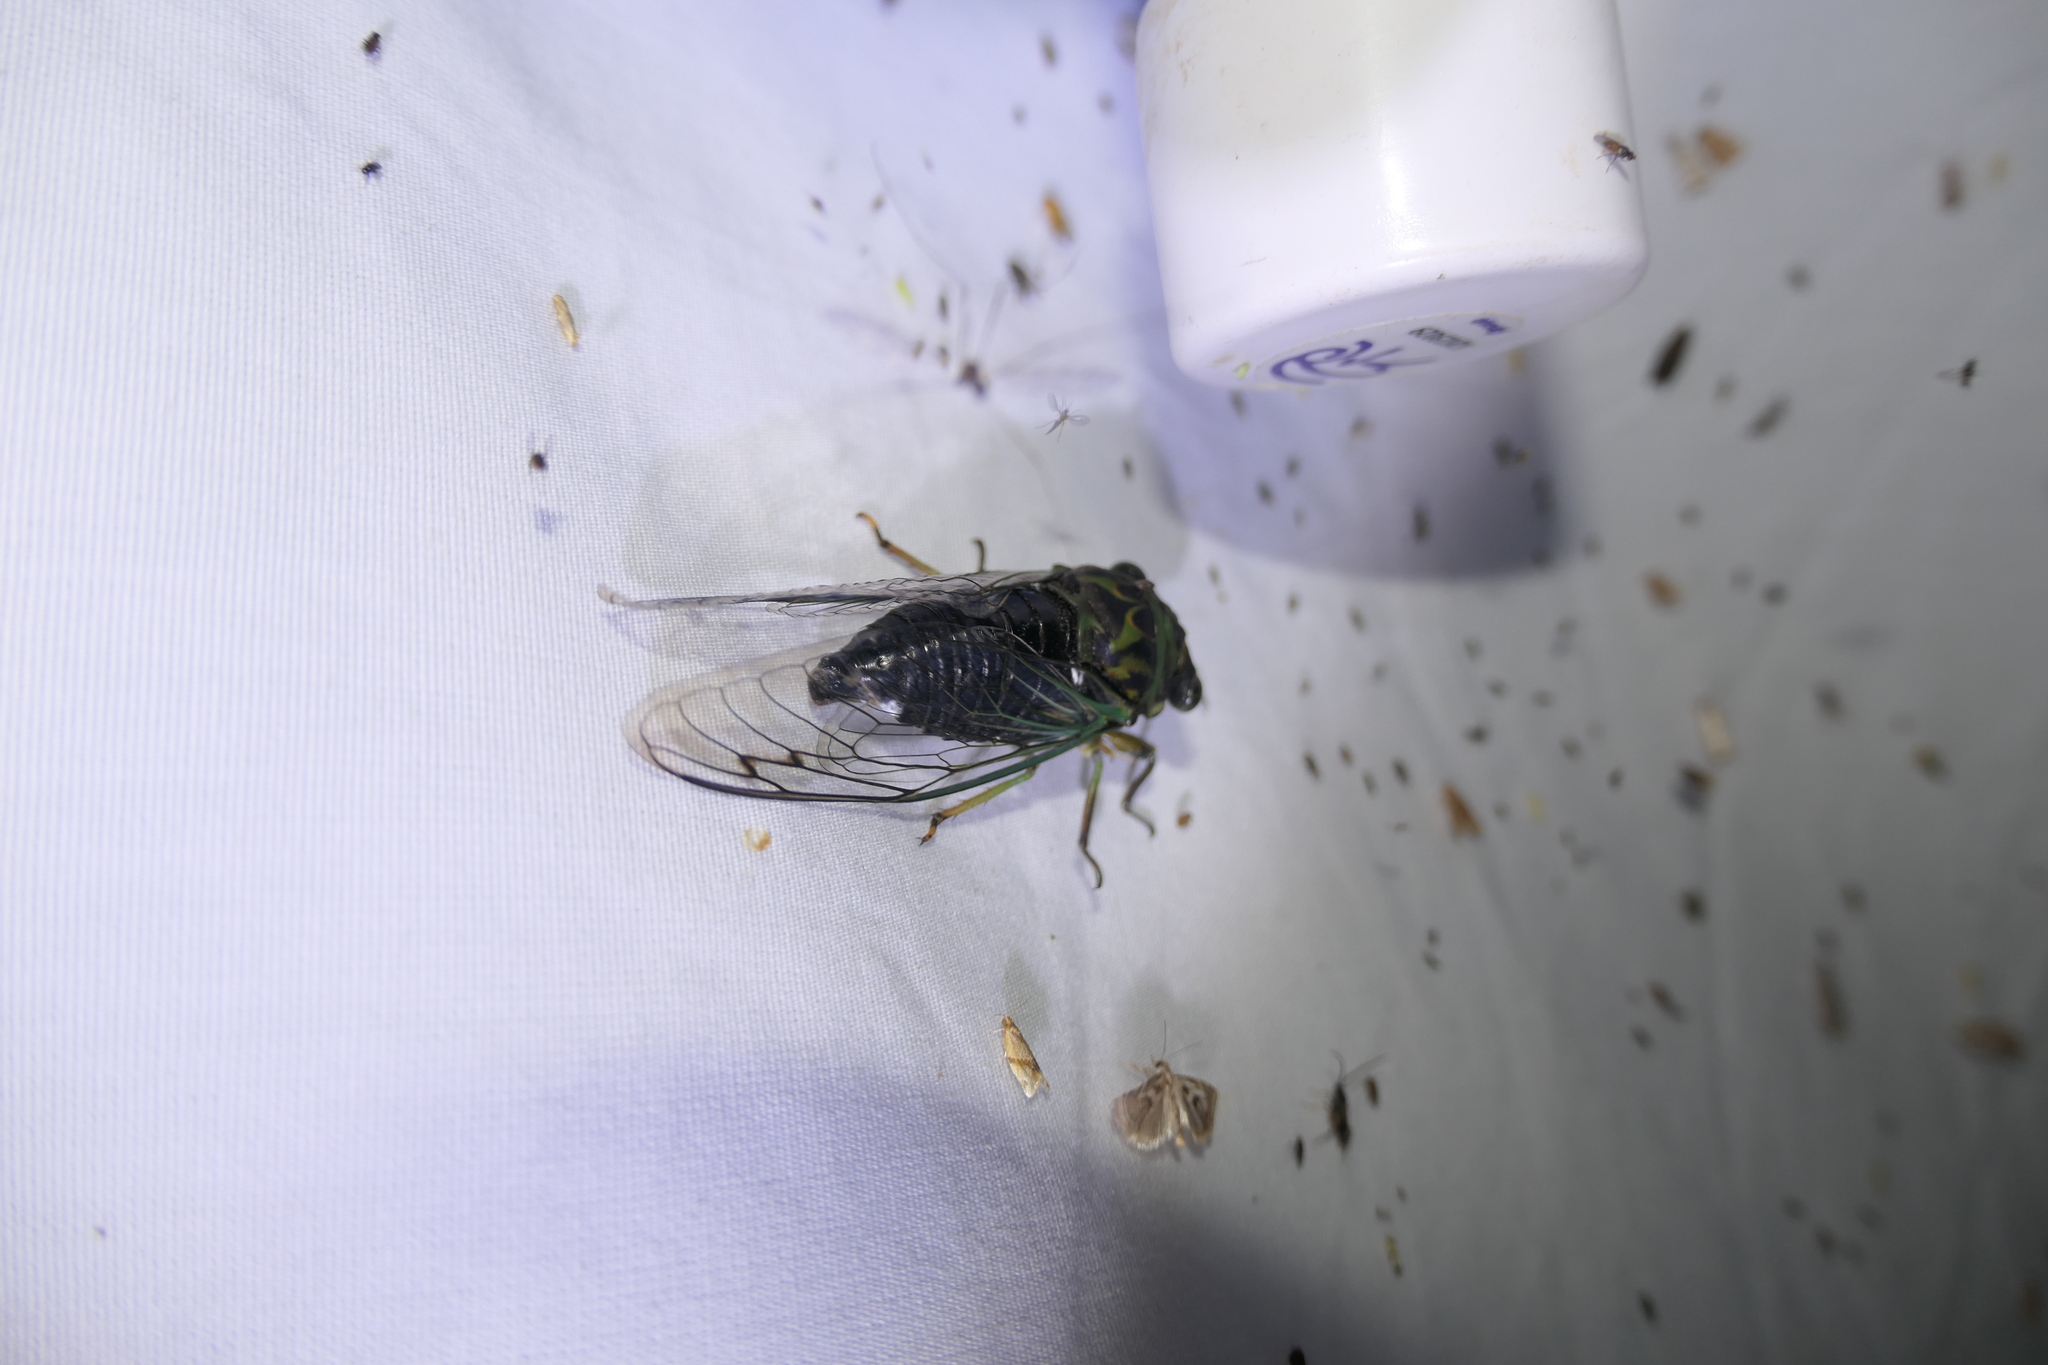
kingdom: Animalia
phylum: Arthropoda
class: Insecta
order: Hemiptera
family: Cicadidae
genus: Neotibicen
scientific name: Neotibicen linnei
